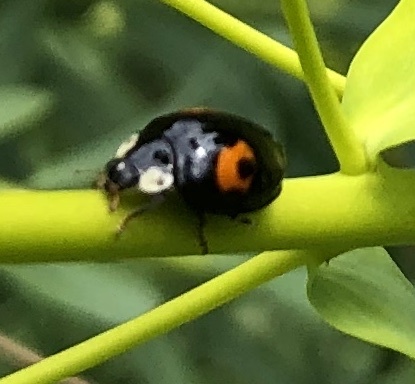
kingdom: Animalia
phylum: Arthropoda
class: Insecta
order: Coleoptera
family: Coccinellidae
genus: Harmonia
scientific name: Harmonia axyridis
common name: Harlequin ladybird
